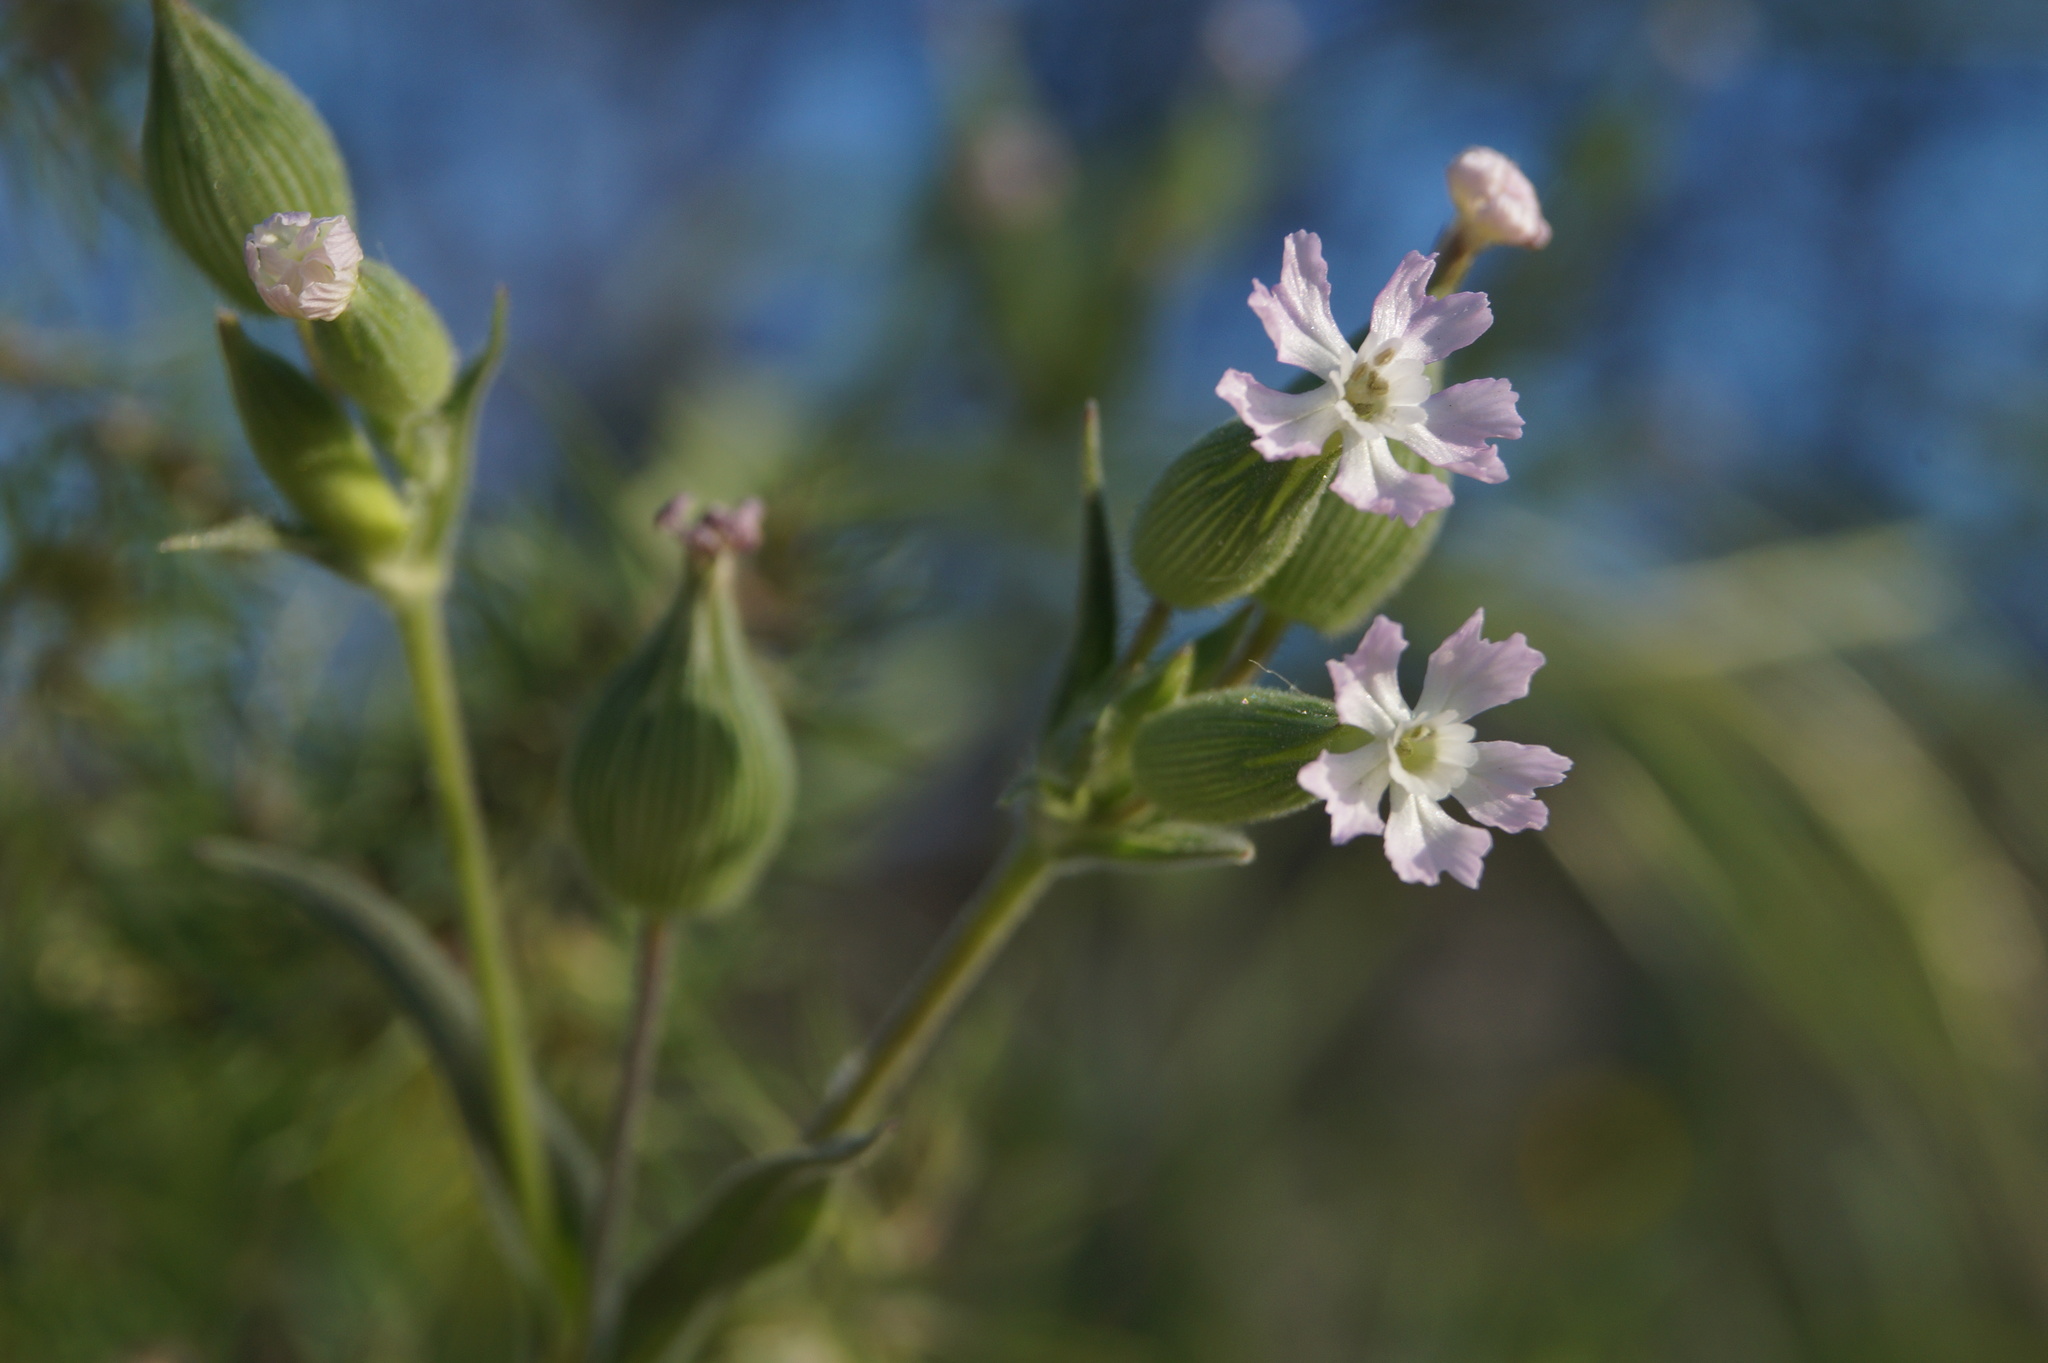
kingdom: Plantae
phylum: Tracheophyta
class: Magnoliopsida
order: Caryophyllales
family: Caryophyllaceae
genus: Silene
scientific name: Silene subconica
